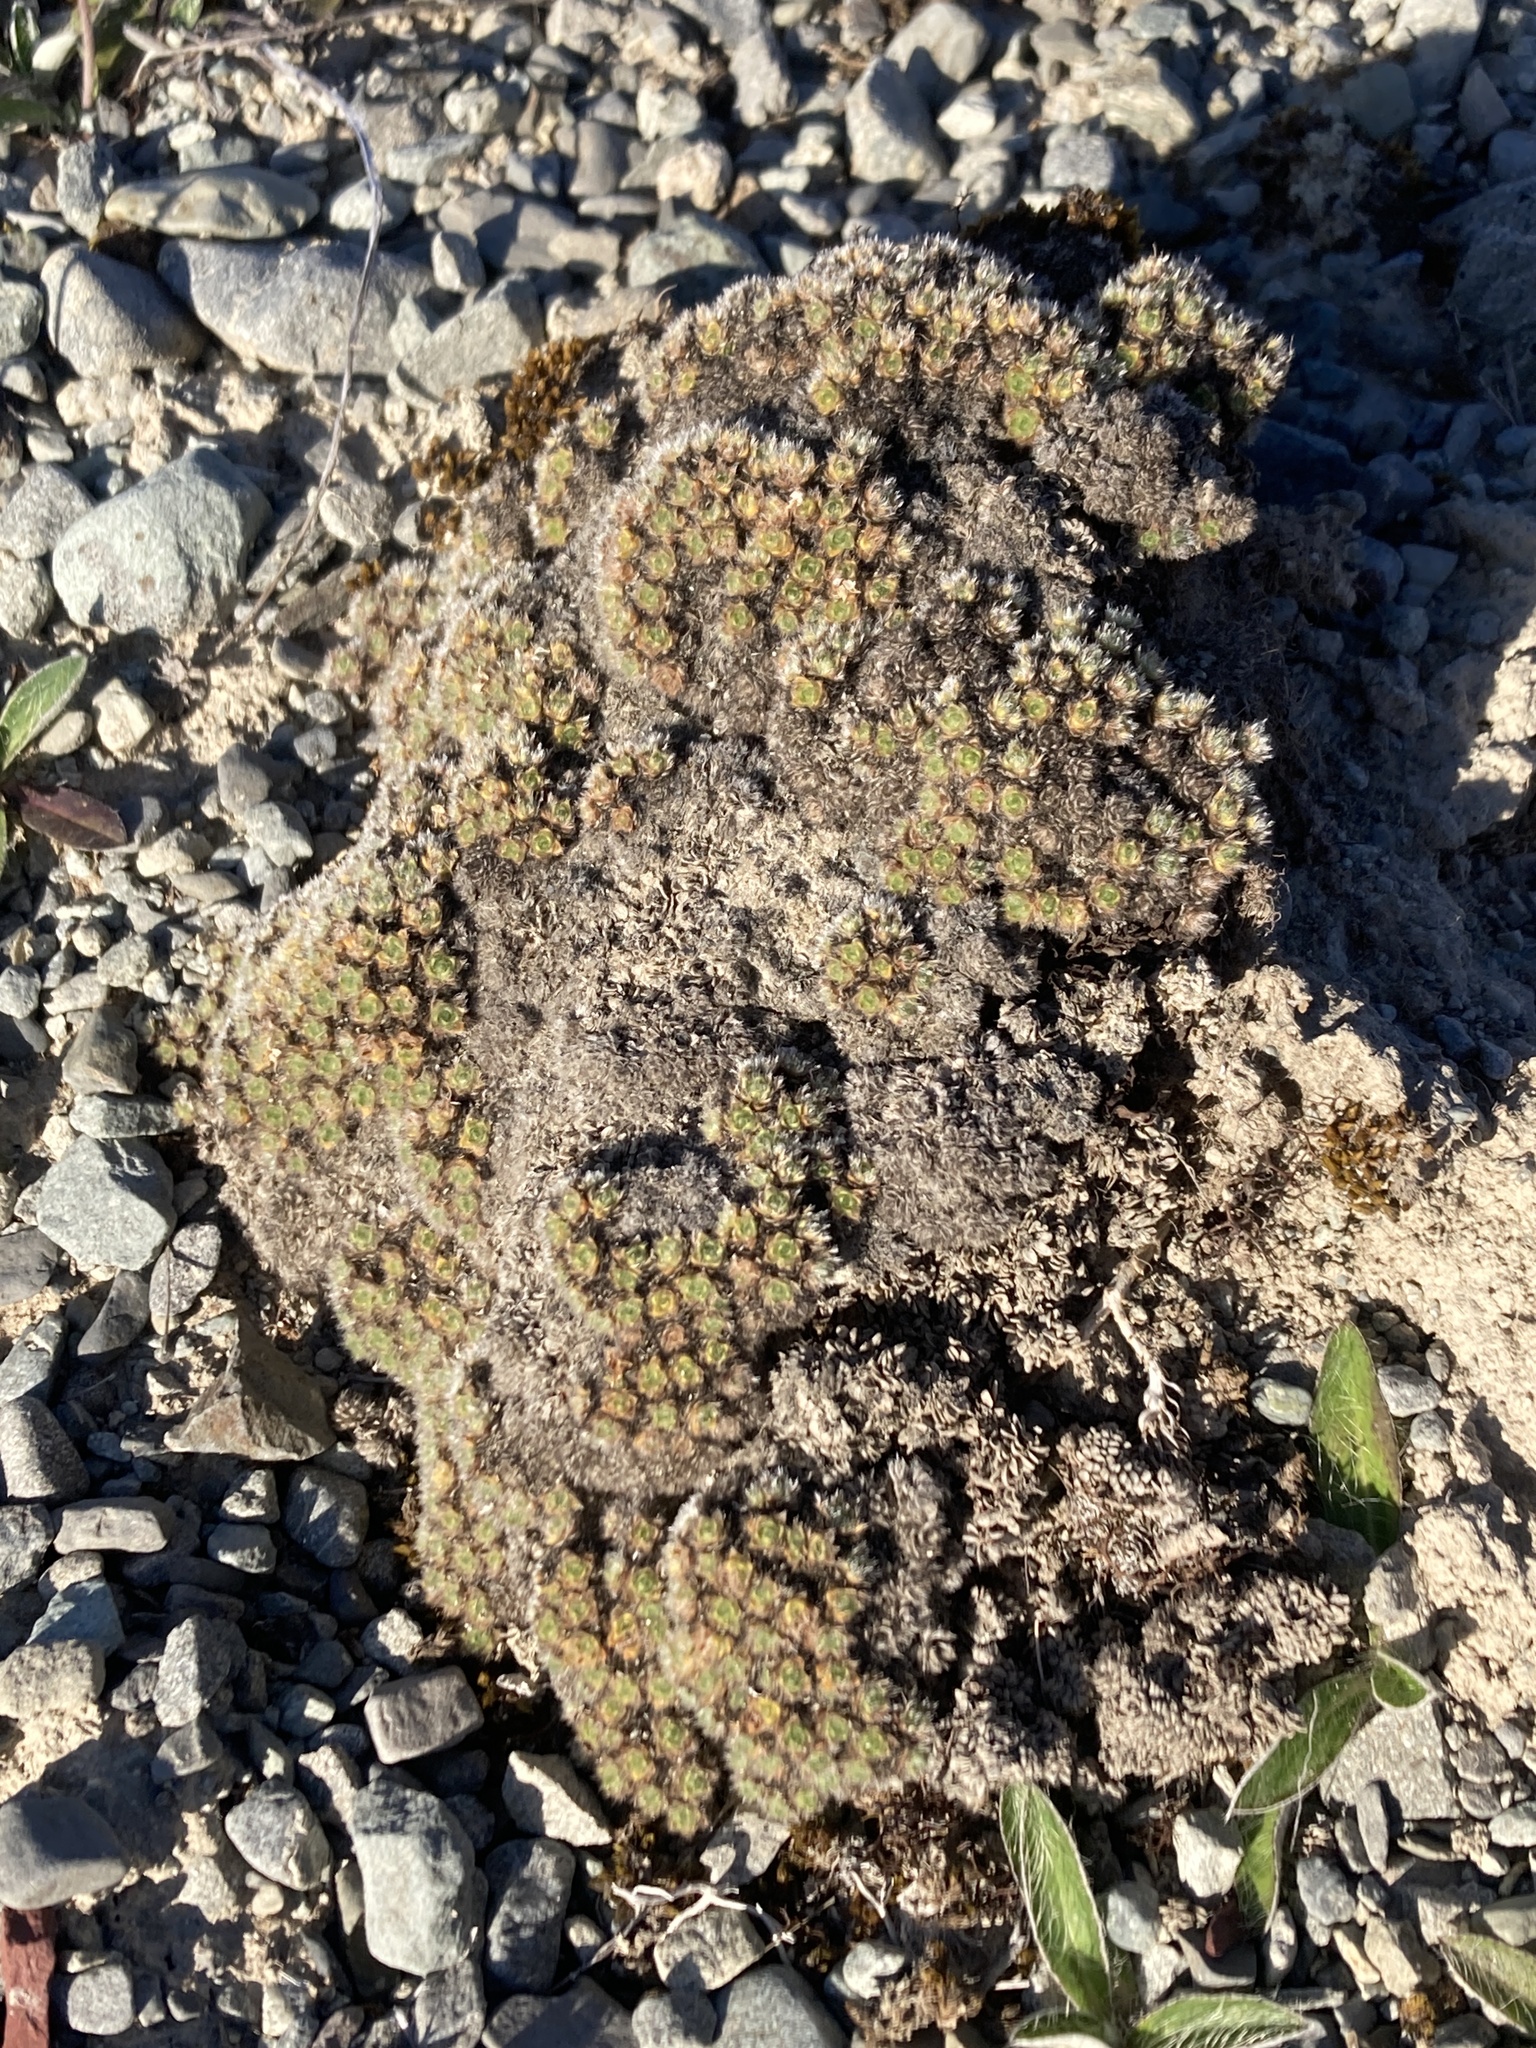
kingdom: Plantae
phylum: Tracheophyta
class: Magnoliopsida
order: Lamiales
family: Plantaginaceae
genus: Veronica
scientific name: Veronica pulvinaris
